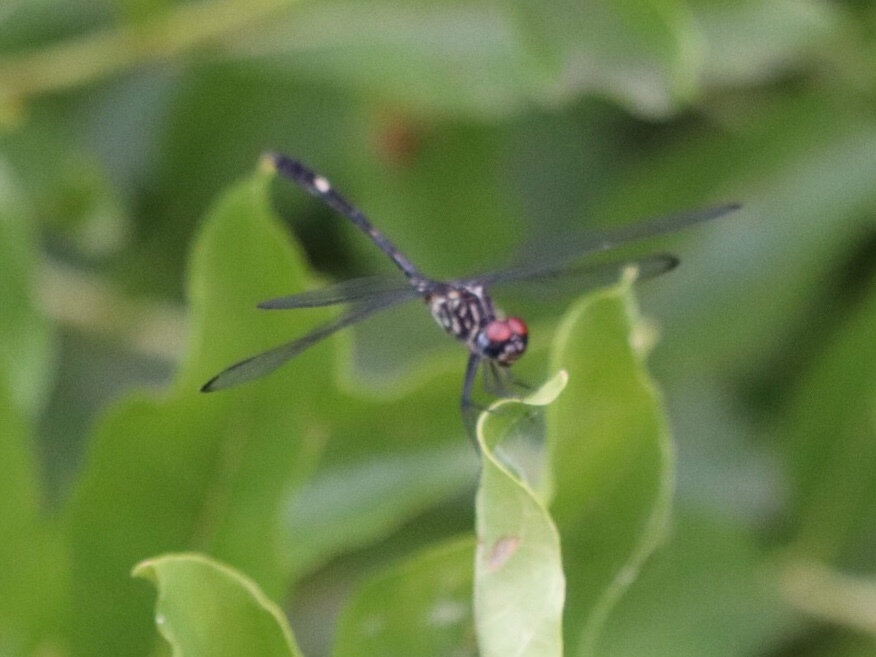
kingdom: Animalia
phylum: Arthropoda
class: Insecta
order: Odonata
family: Libellulidae
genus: Dythemis
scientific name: Dythemis velox
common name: Swift setwing
